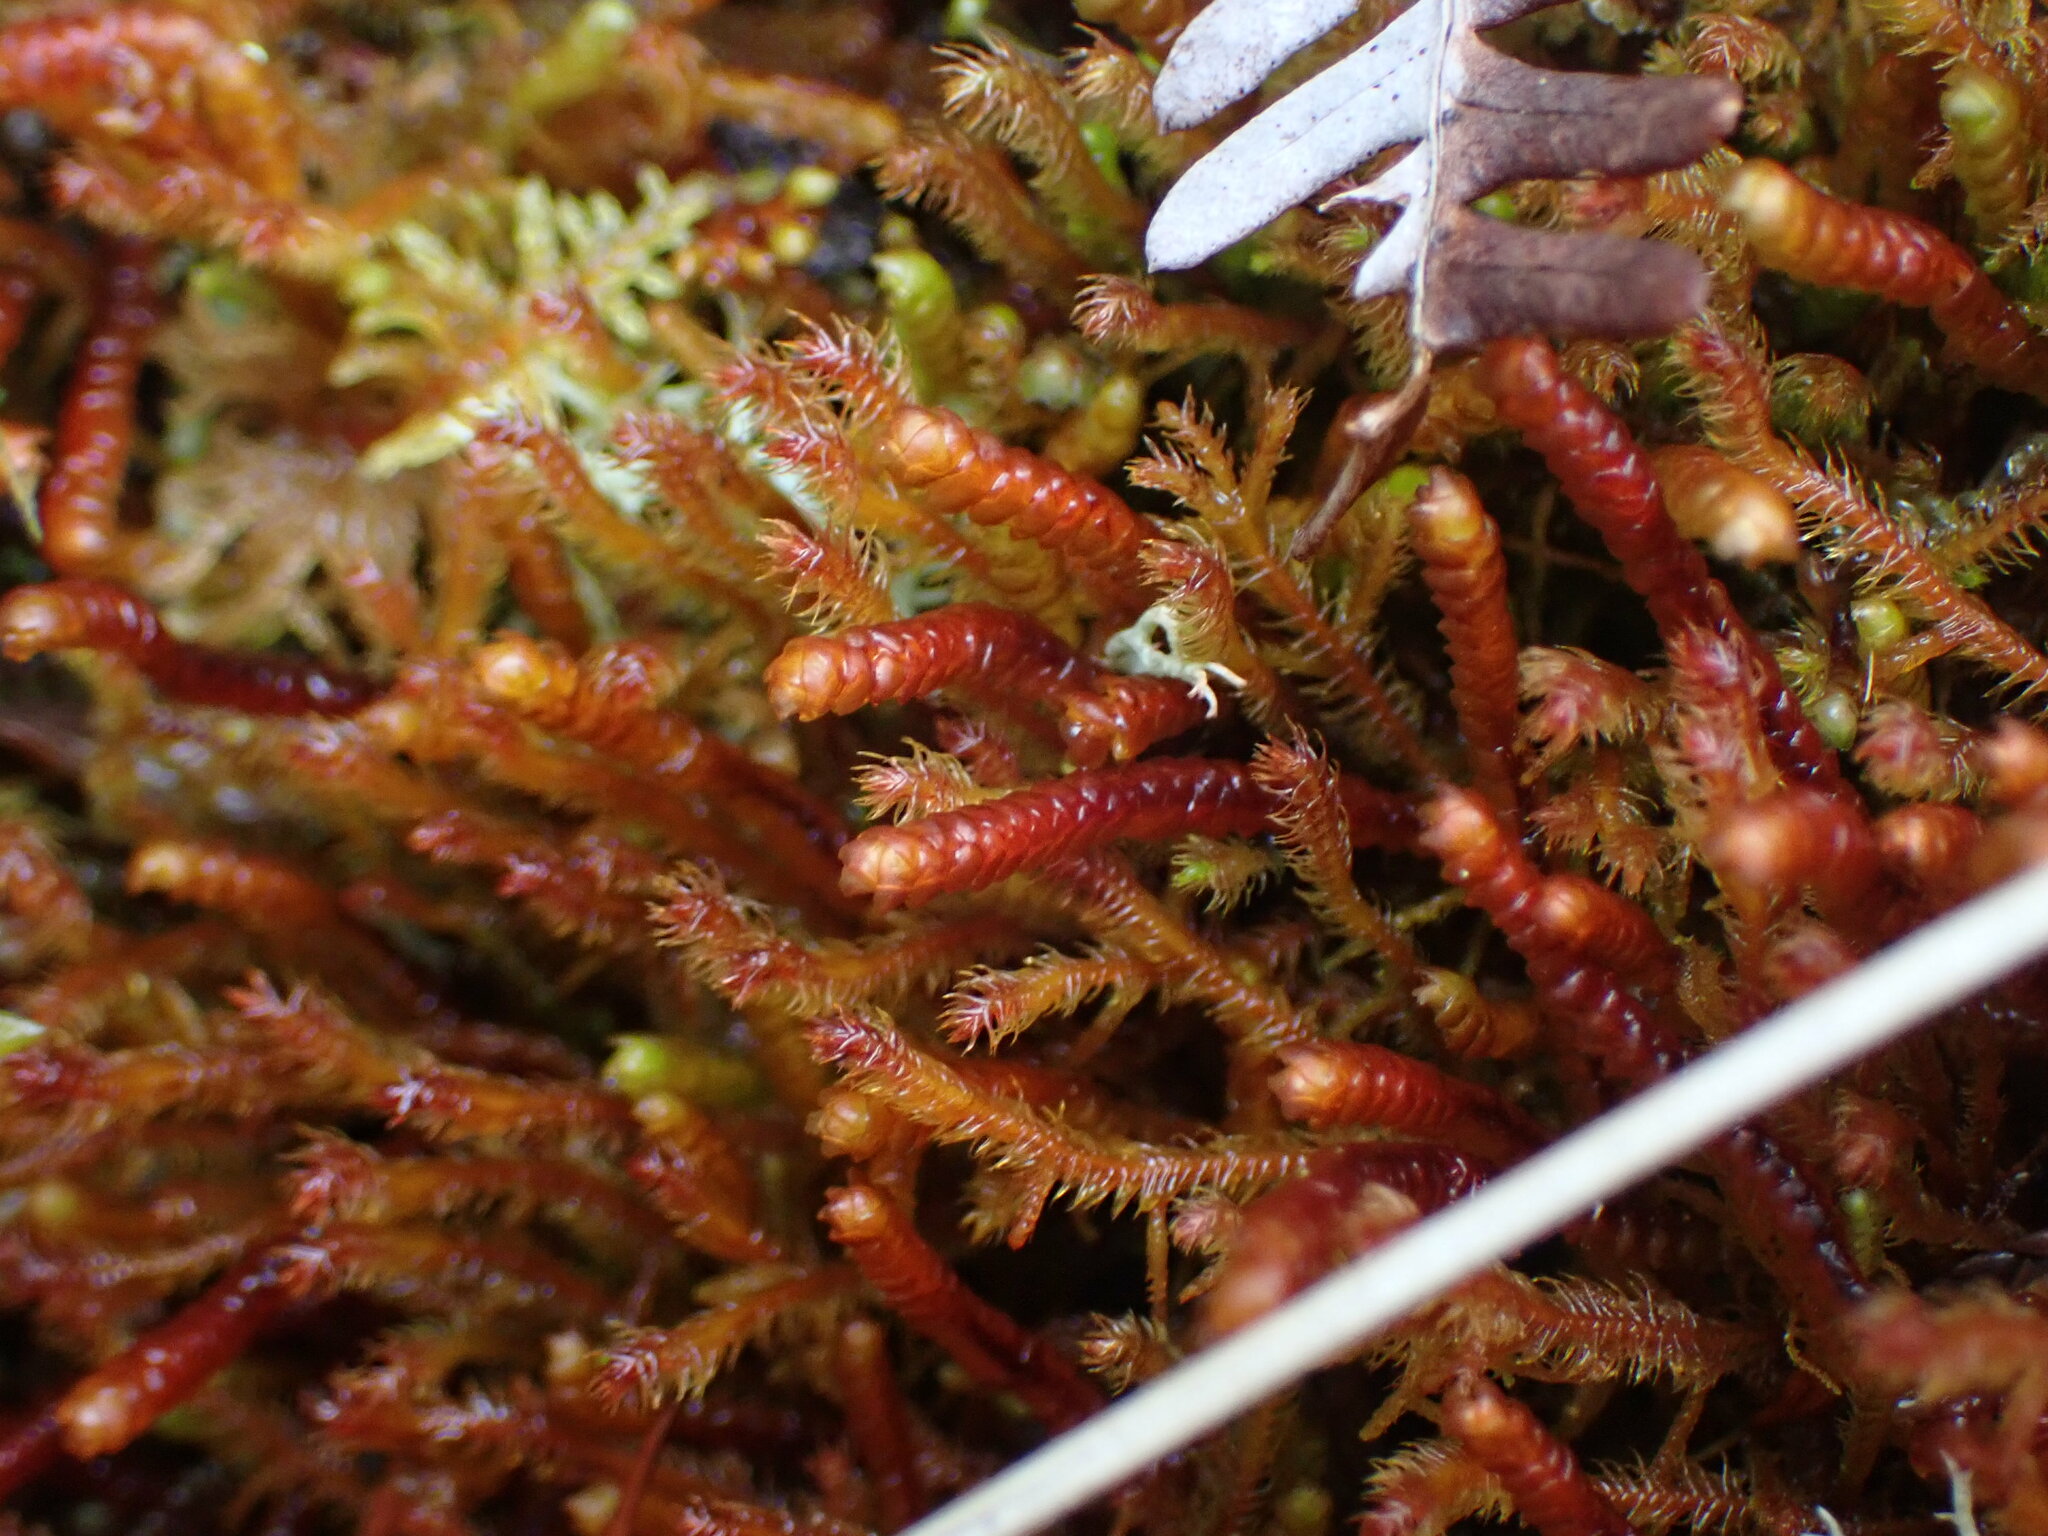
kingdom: Plantae
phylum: Marchantiophyta
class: Jungermanniopsida
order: Pleuroziales
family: Pleuroziaceae
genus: Pleurozia
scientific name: Pleurozia purpurea
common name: Purple spoonwort
